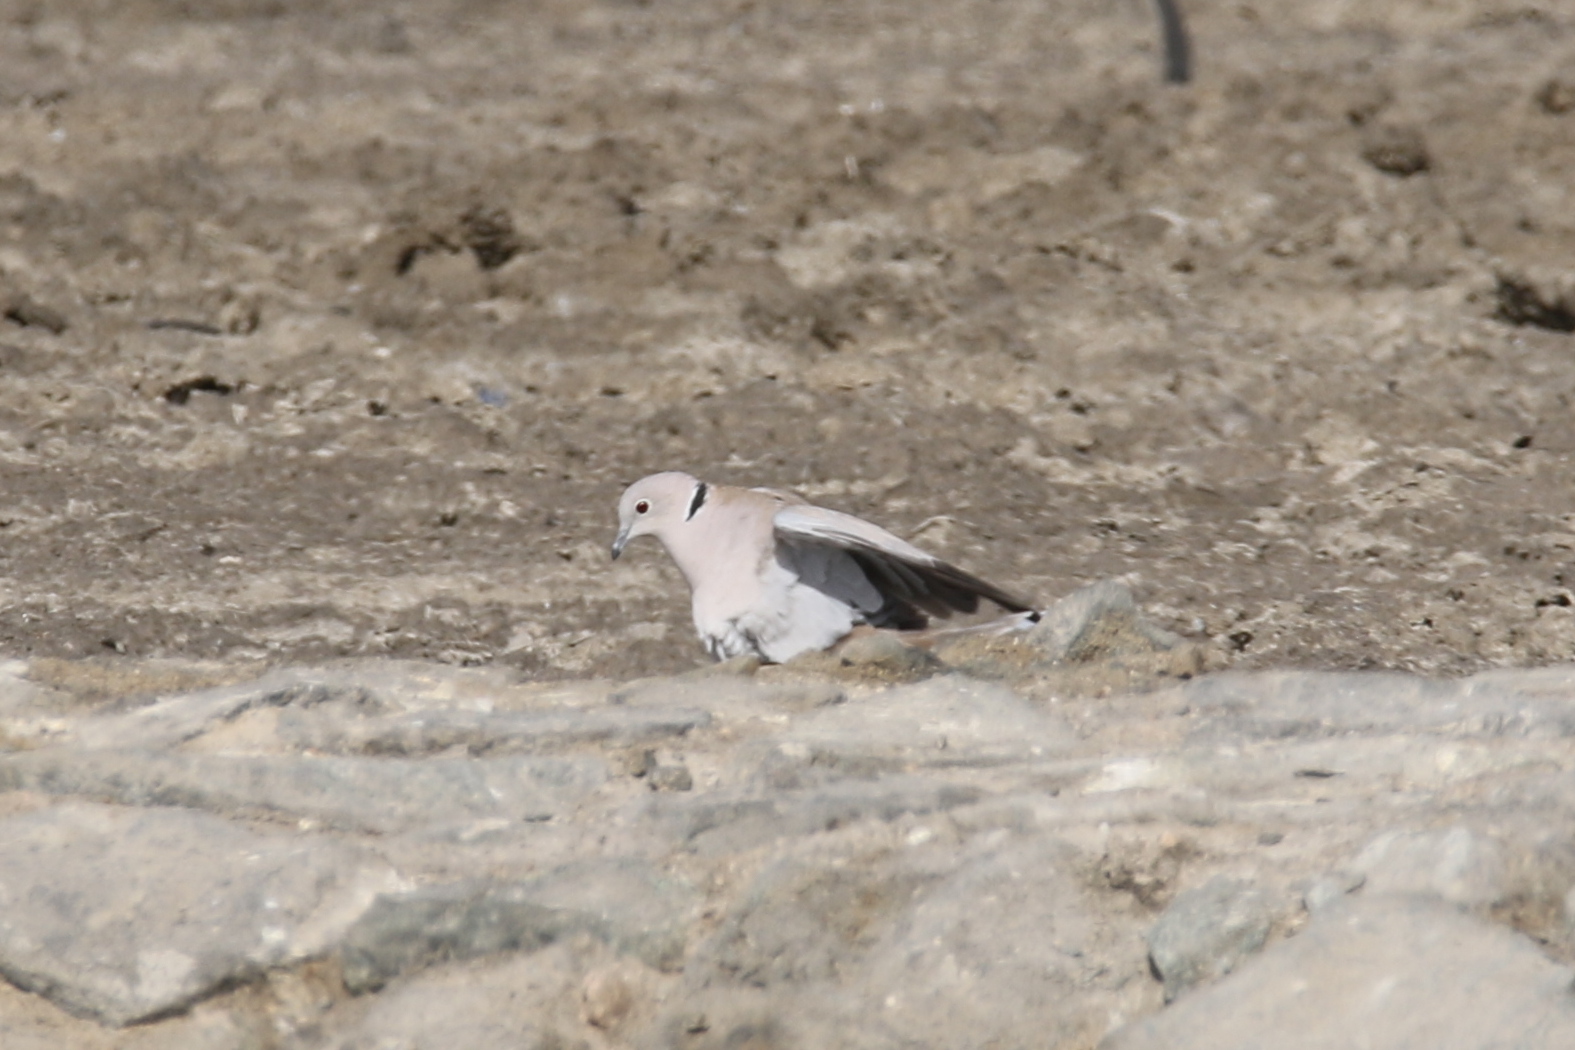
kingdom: Animalia
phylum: Chordata
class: Aves
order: Columbiformes
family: Columbidae
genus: Streptopelia
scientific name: Streptopelia decaocto
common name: Eurasian collared dove
